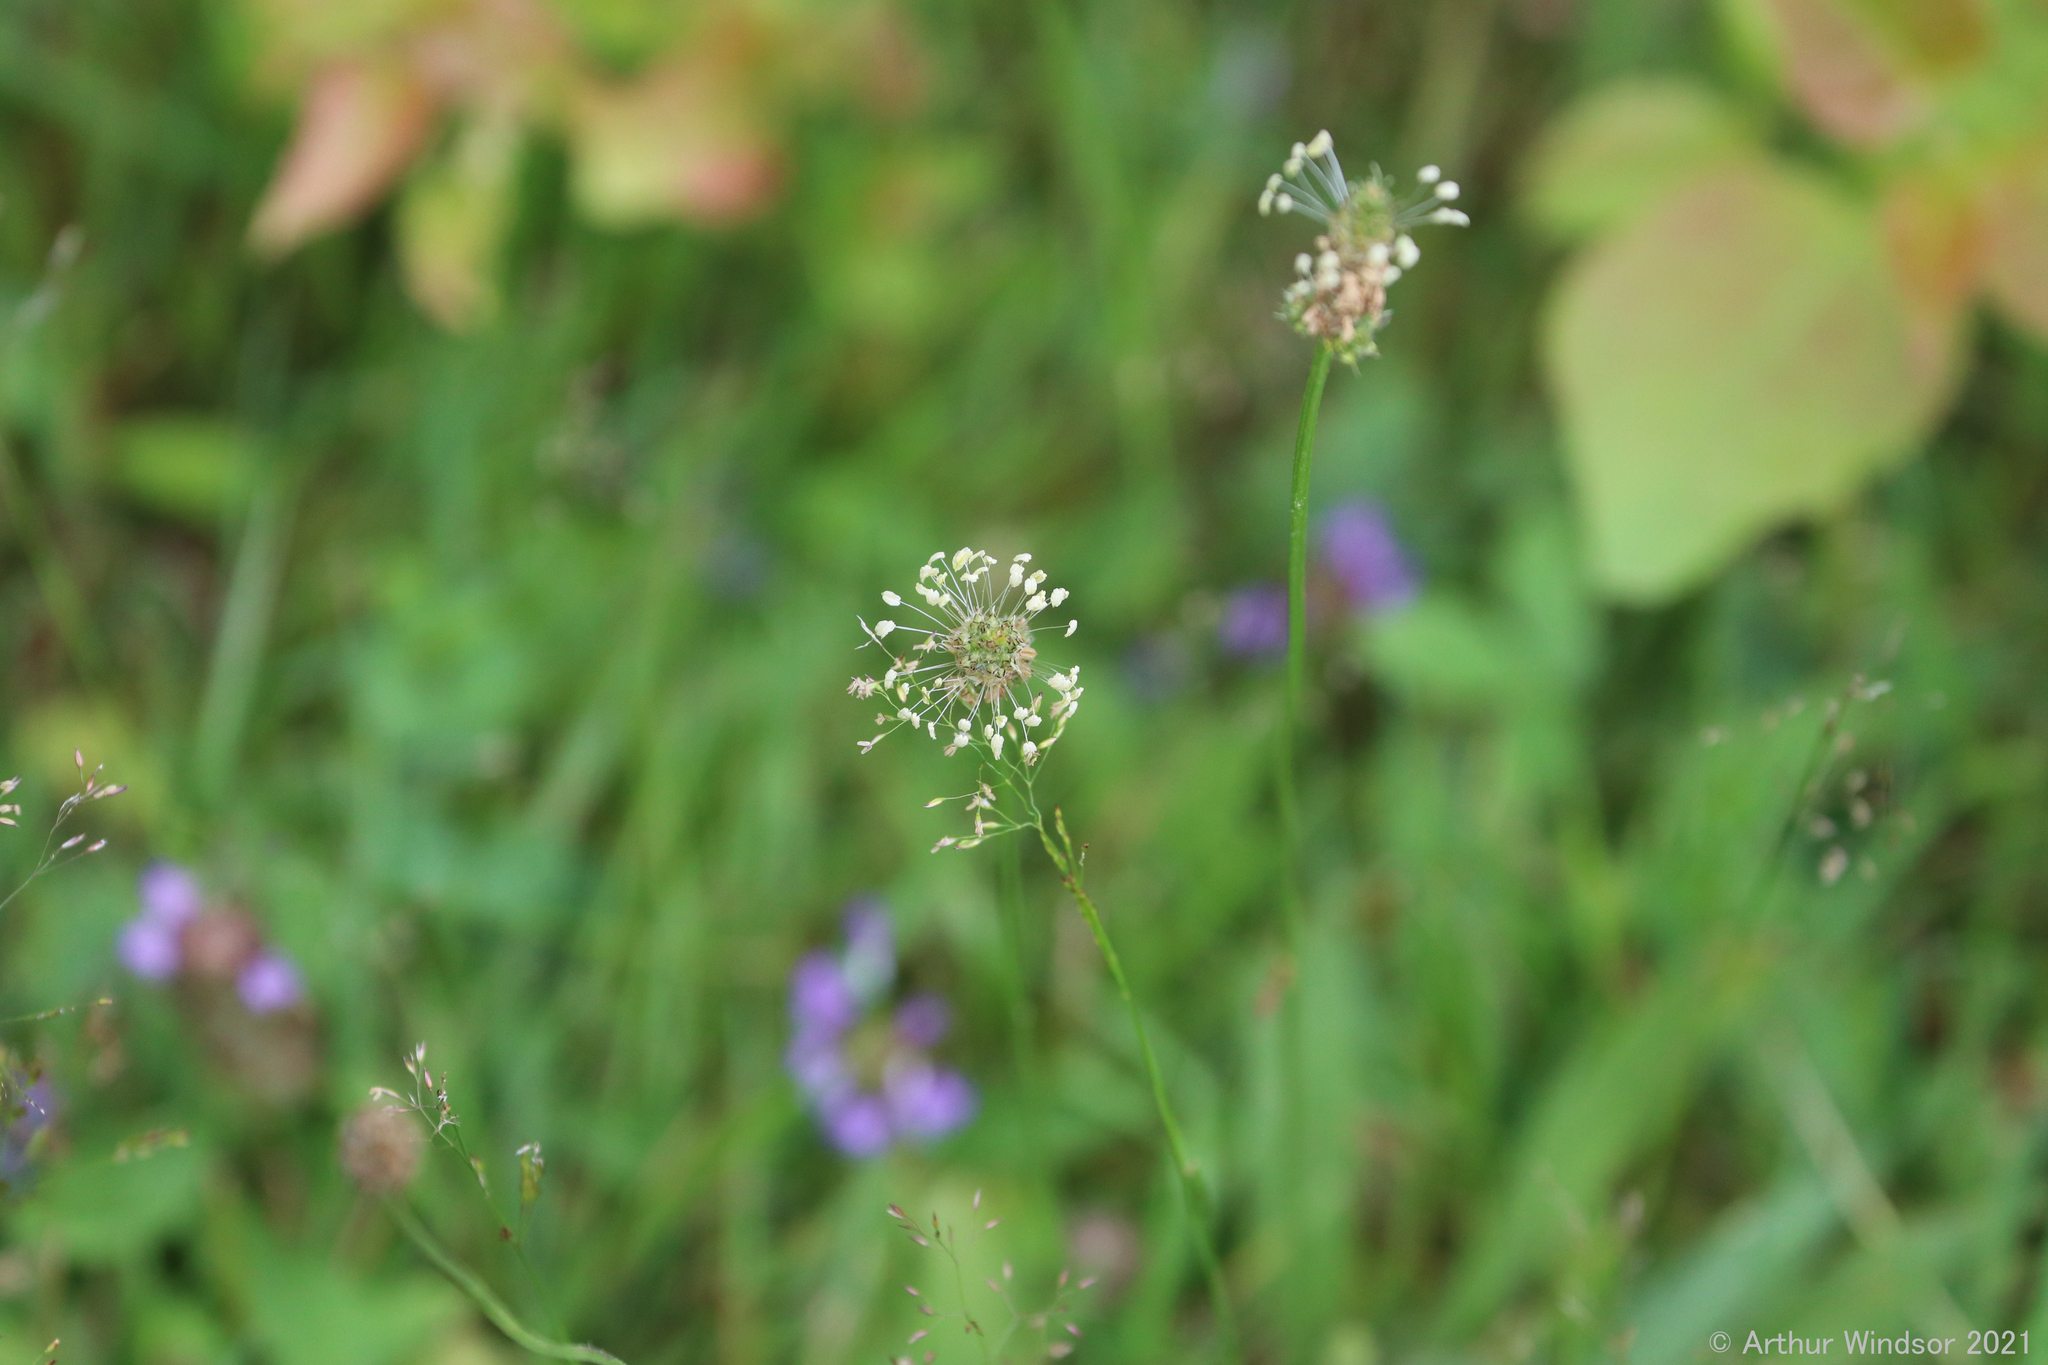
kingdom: Plantae
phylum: Tracheophyta
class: Magnoliopsida
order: Lamiales
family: Plantaginaceae
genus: Plantago
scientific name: Plantago lanceolata
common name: Ribwort plantain
